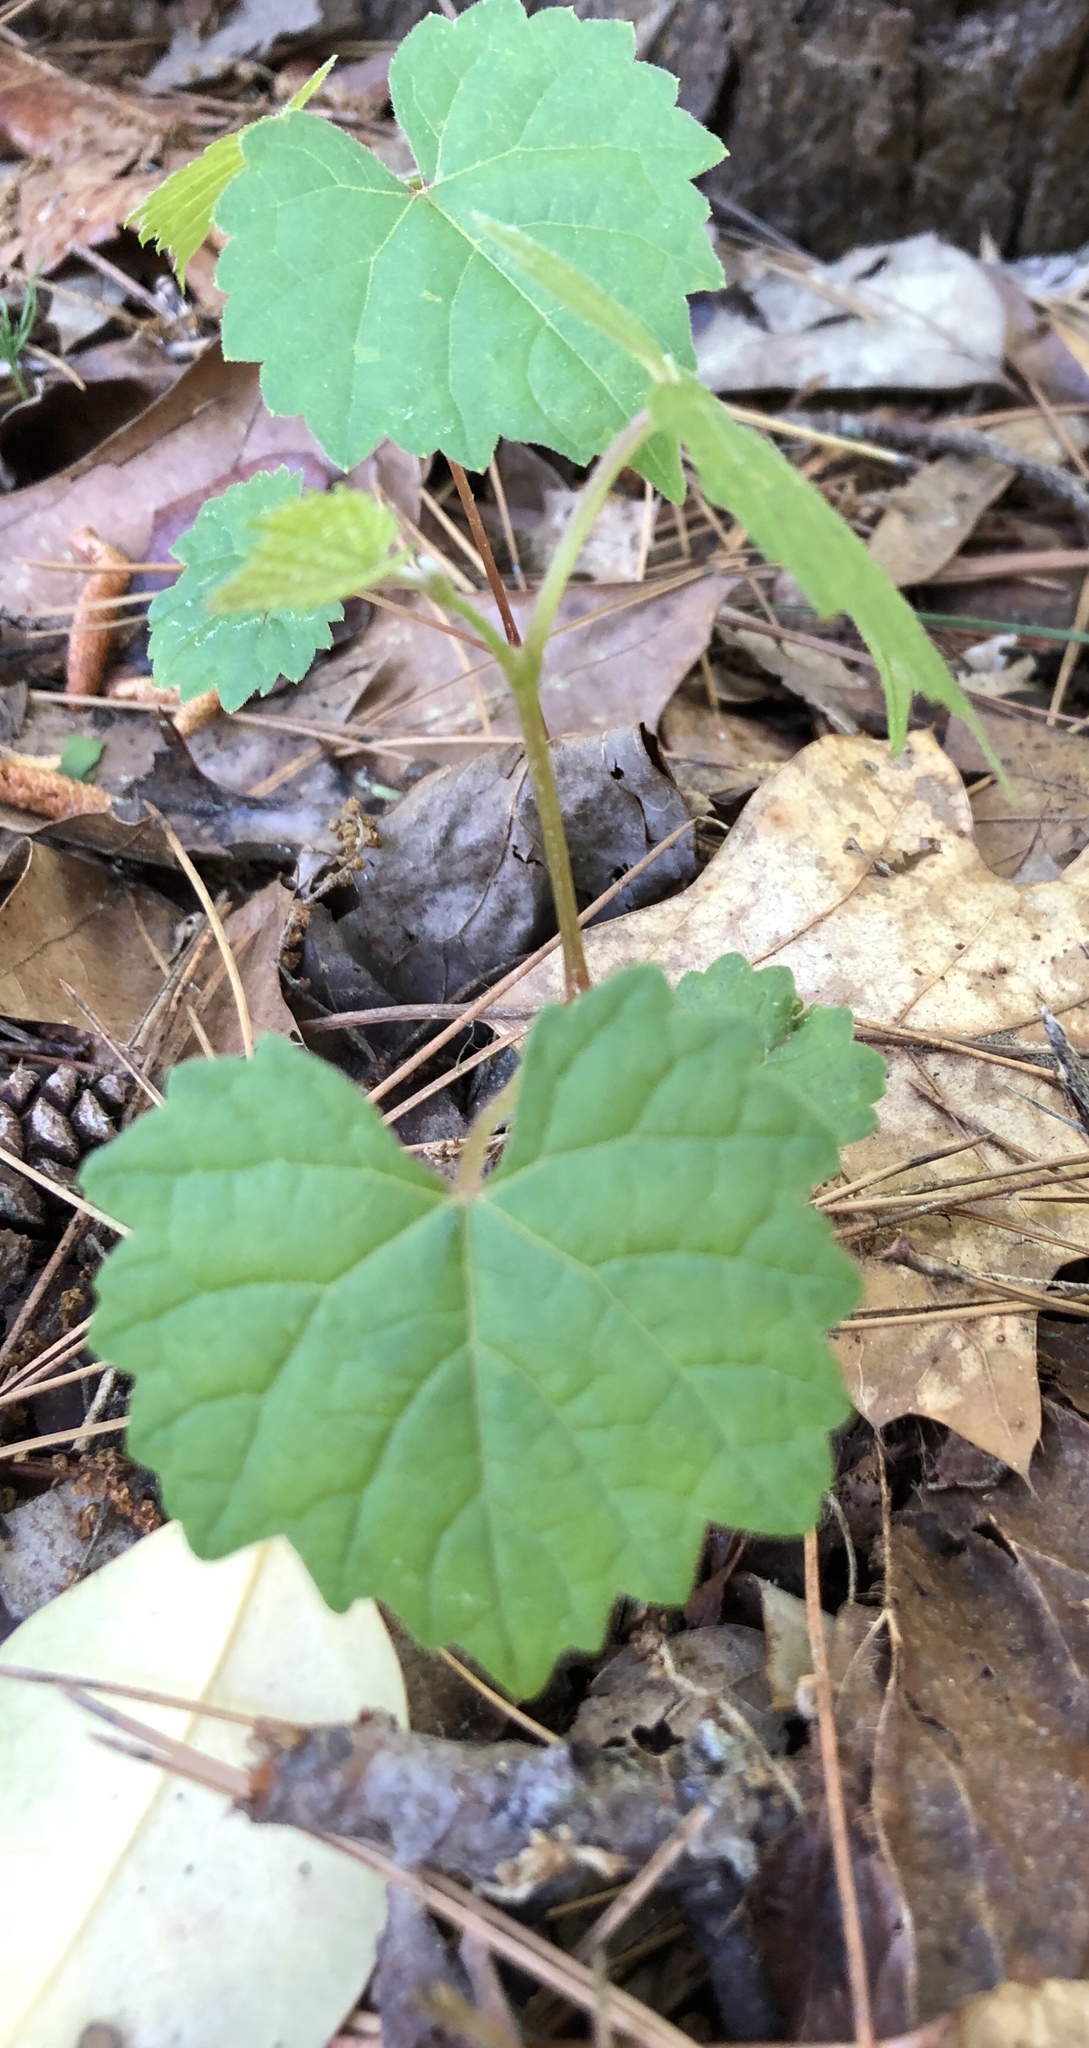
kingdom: Plantae
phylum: Tracheophyta
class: Magnoliopsida
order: Vitales
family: Vitaceae
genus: Vitis
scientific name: Vitis rotundifolia
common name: Muscadine grape
